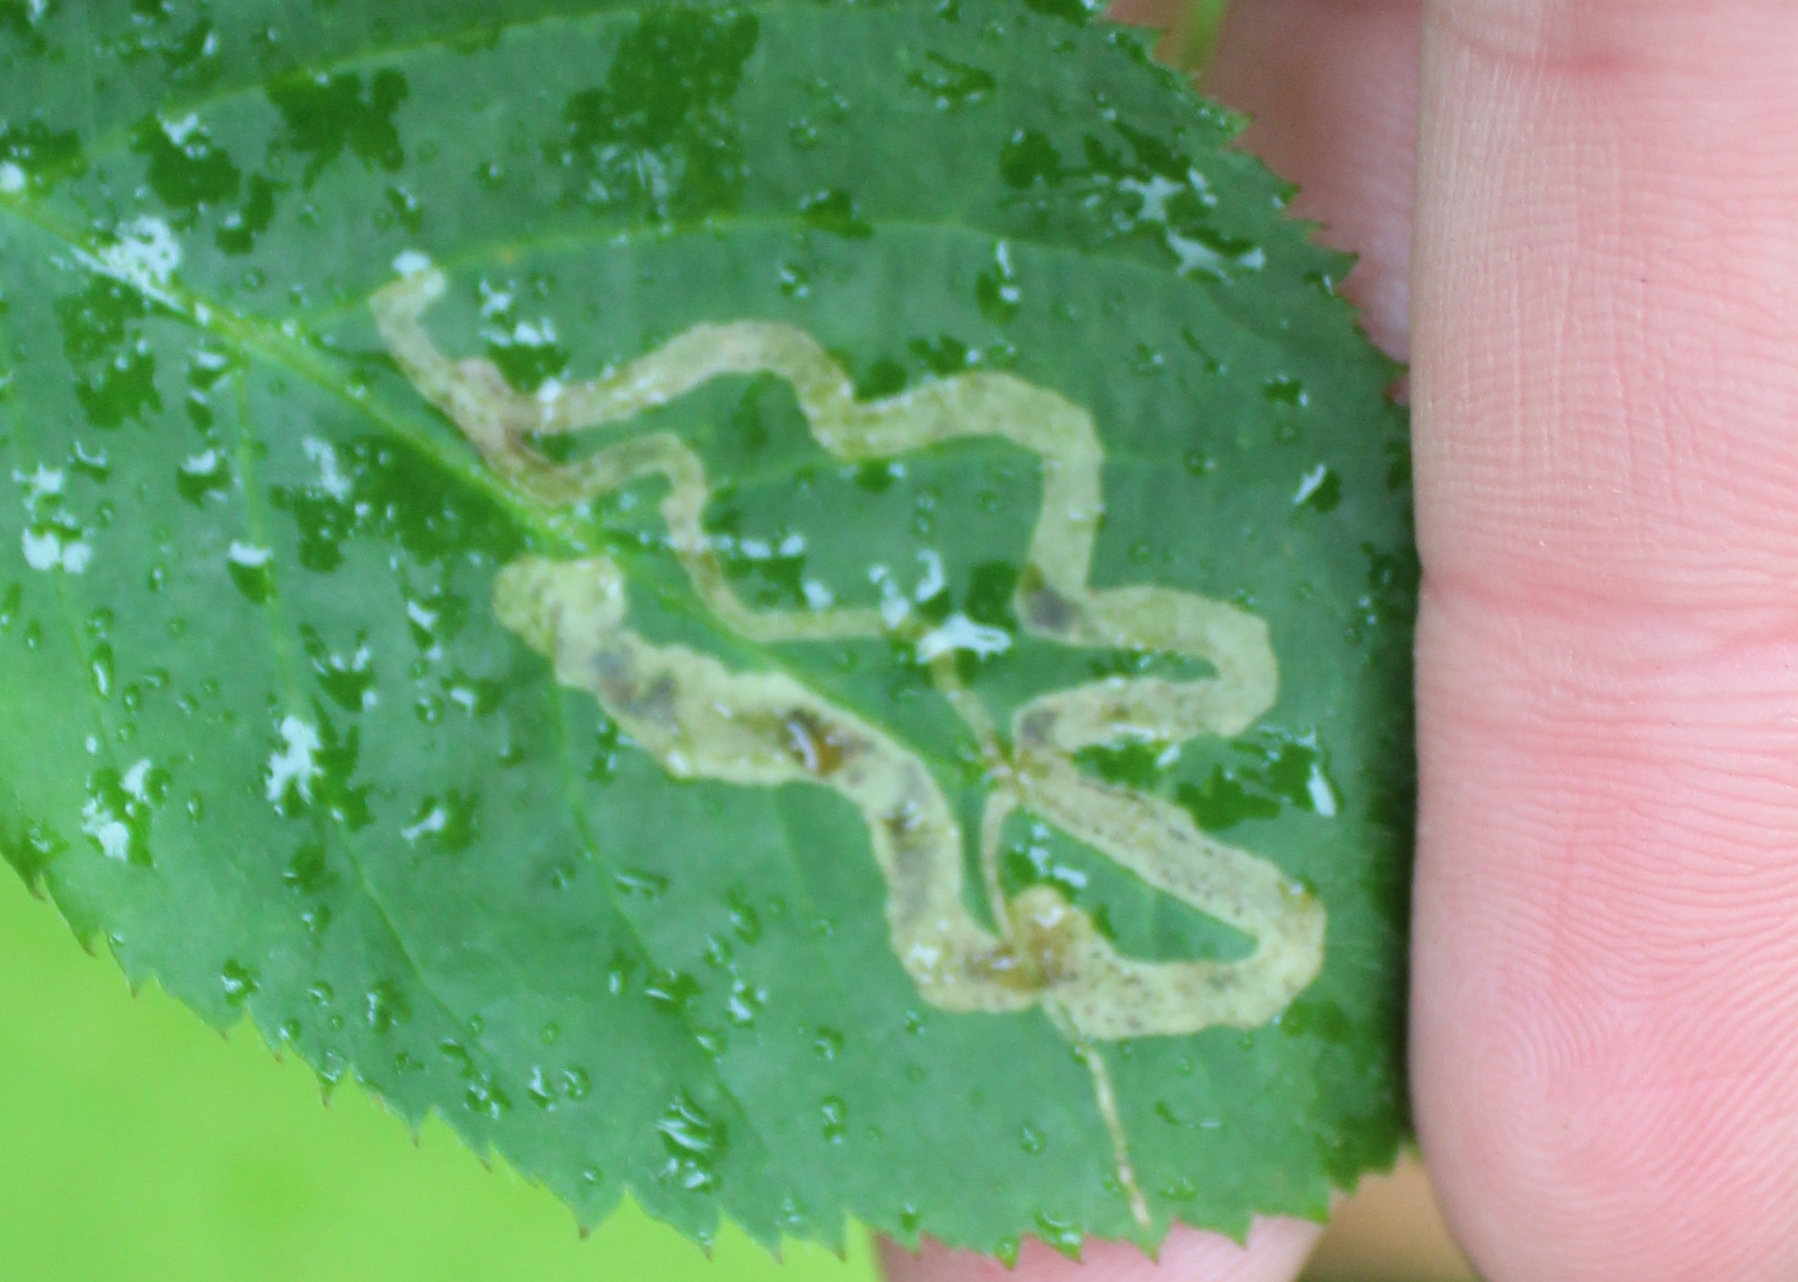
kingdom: Animalia
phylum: Arthropoda
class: Insecta
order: Diptera
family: Agromyzidae
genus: Agromyza
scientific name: Agromyza vockerothi
